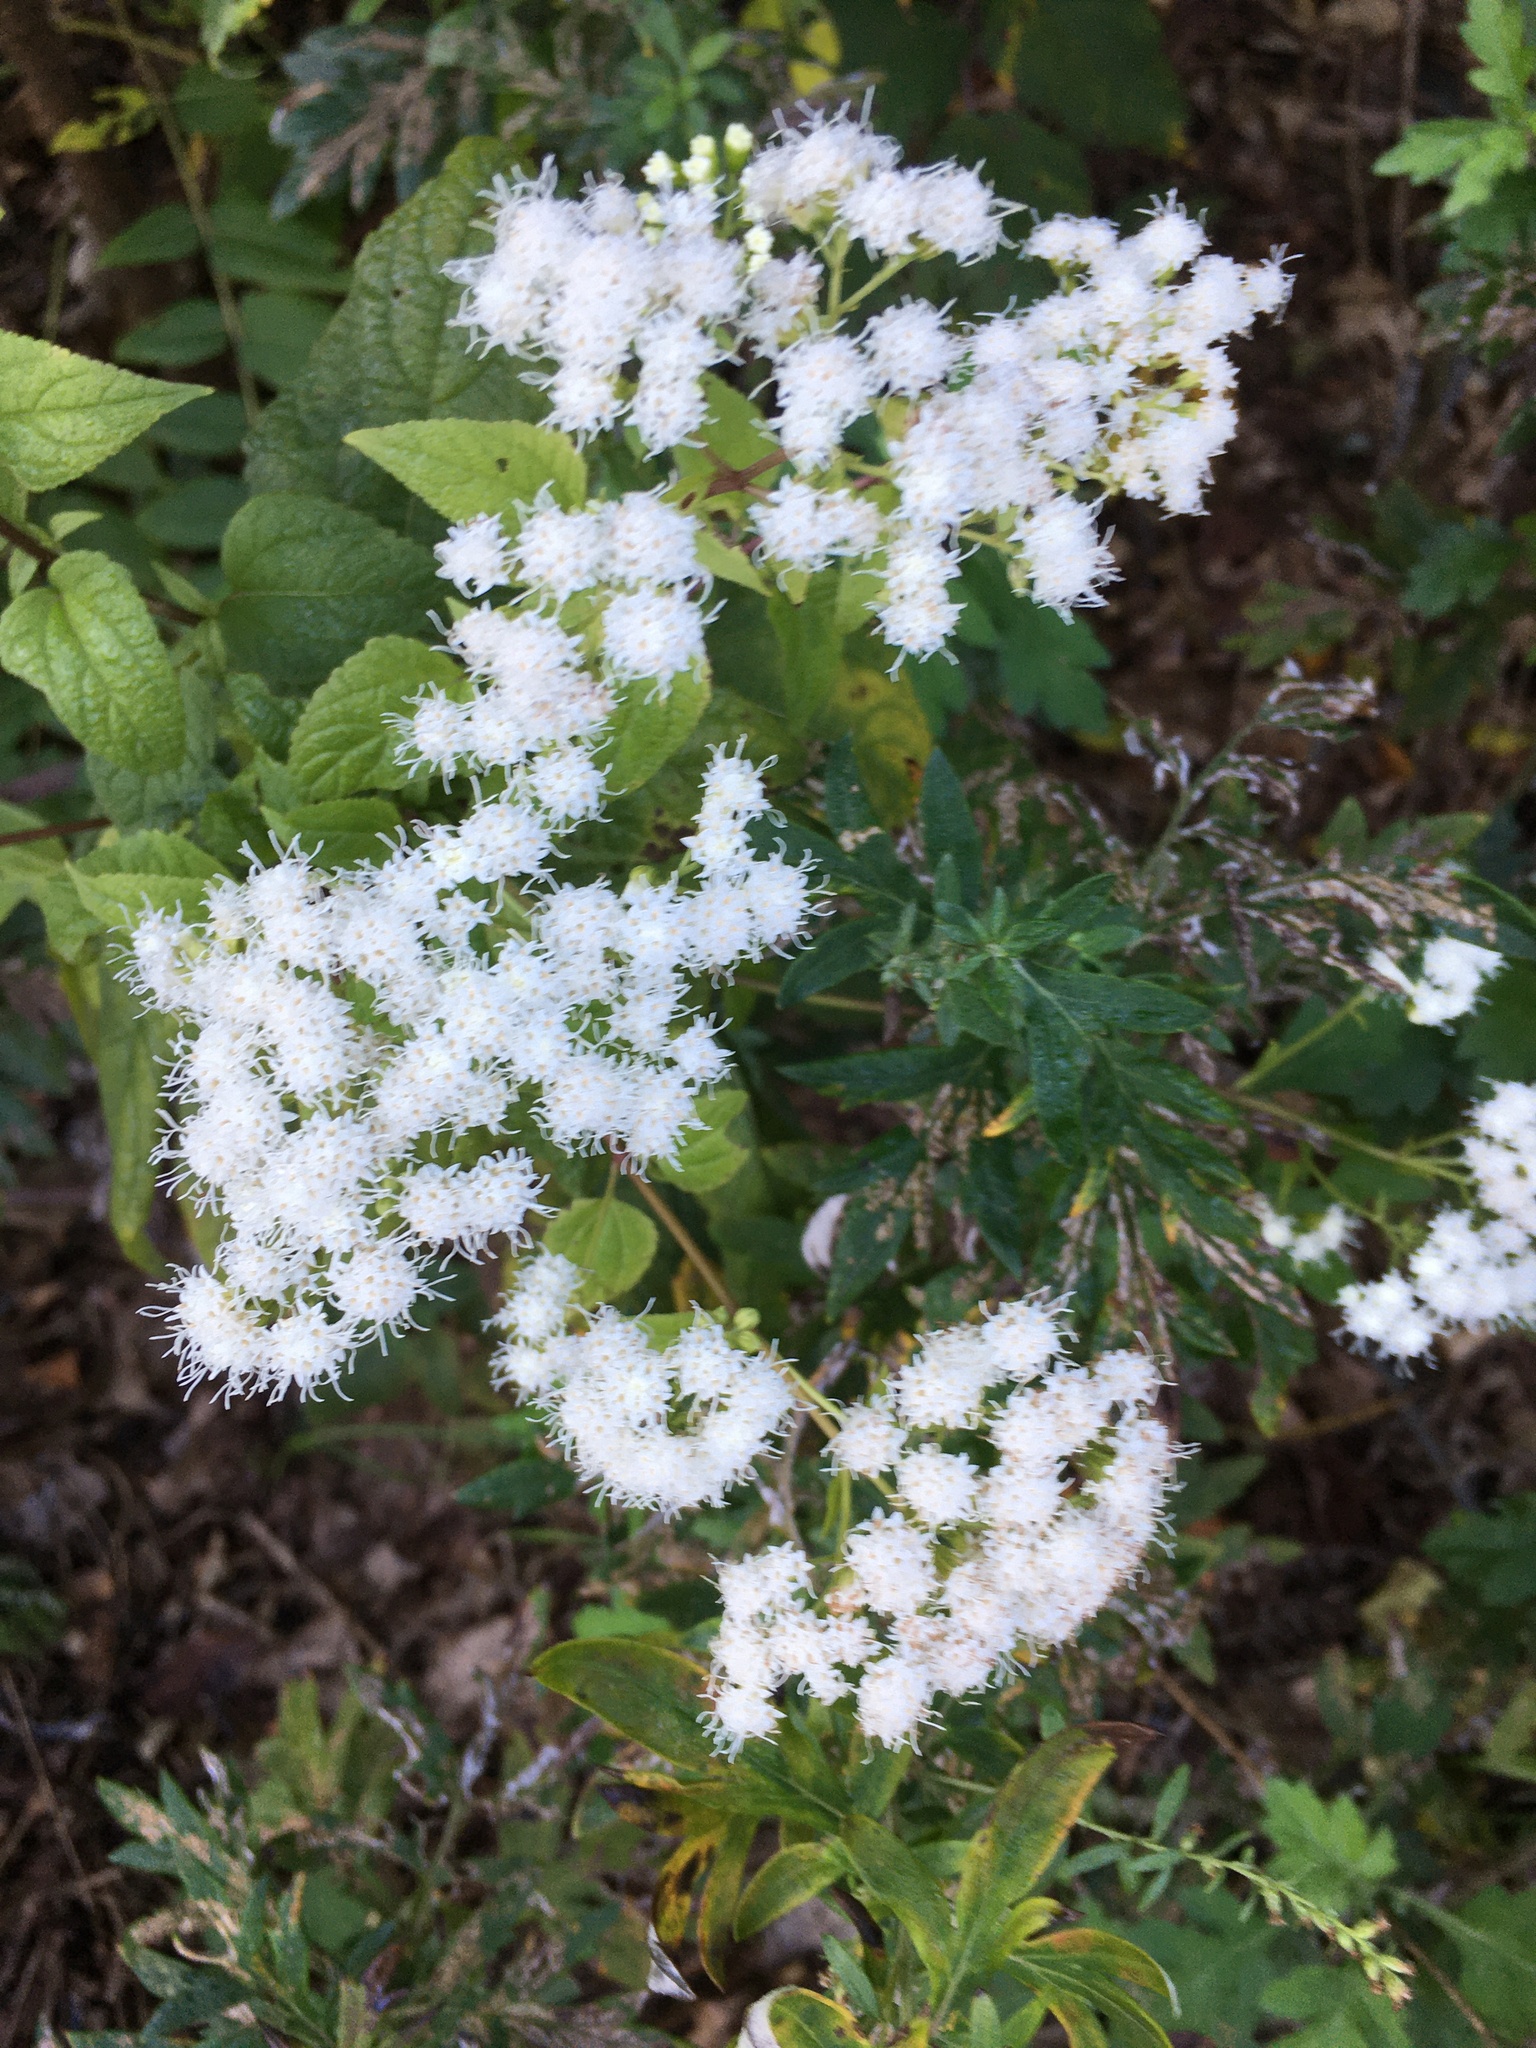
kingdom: Plantae
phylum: Tracheophyta
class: Magnoliopsida
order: Asterales
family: Asteraceae
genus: Ageratina
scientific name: Ageratina altissima
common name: White snakeroot
